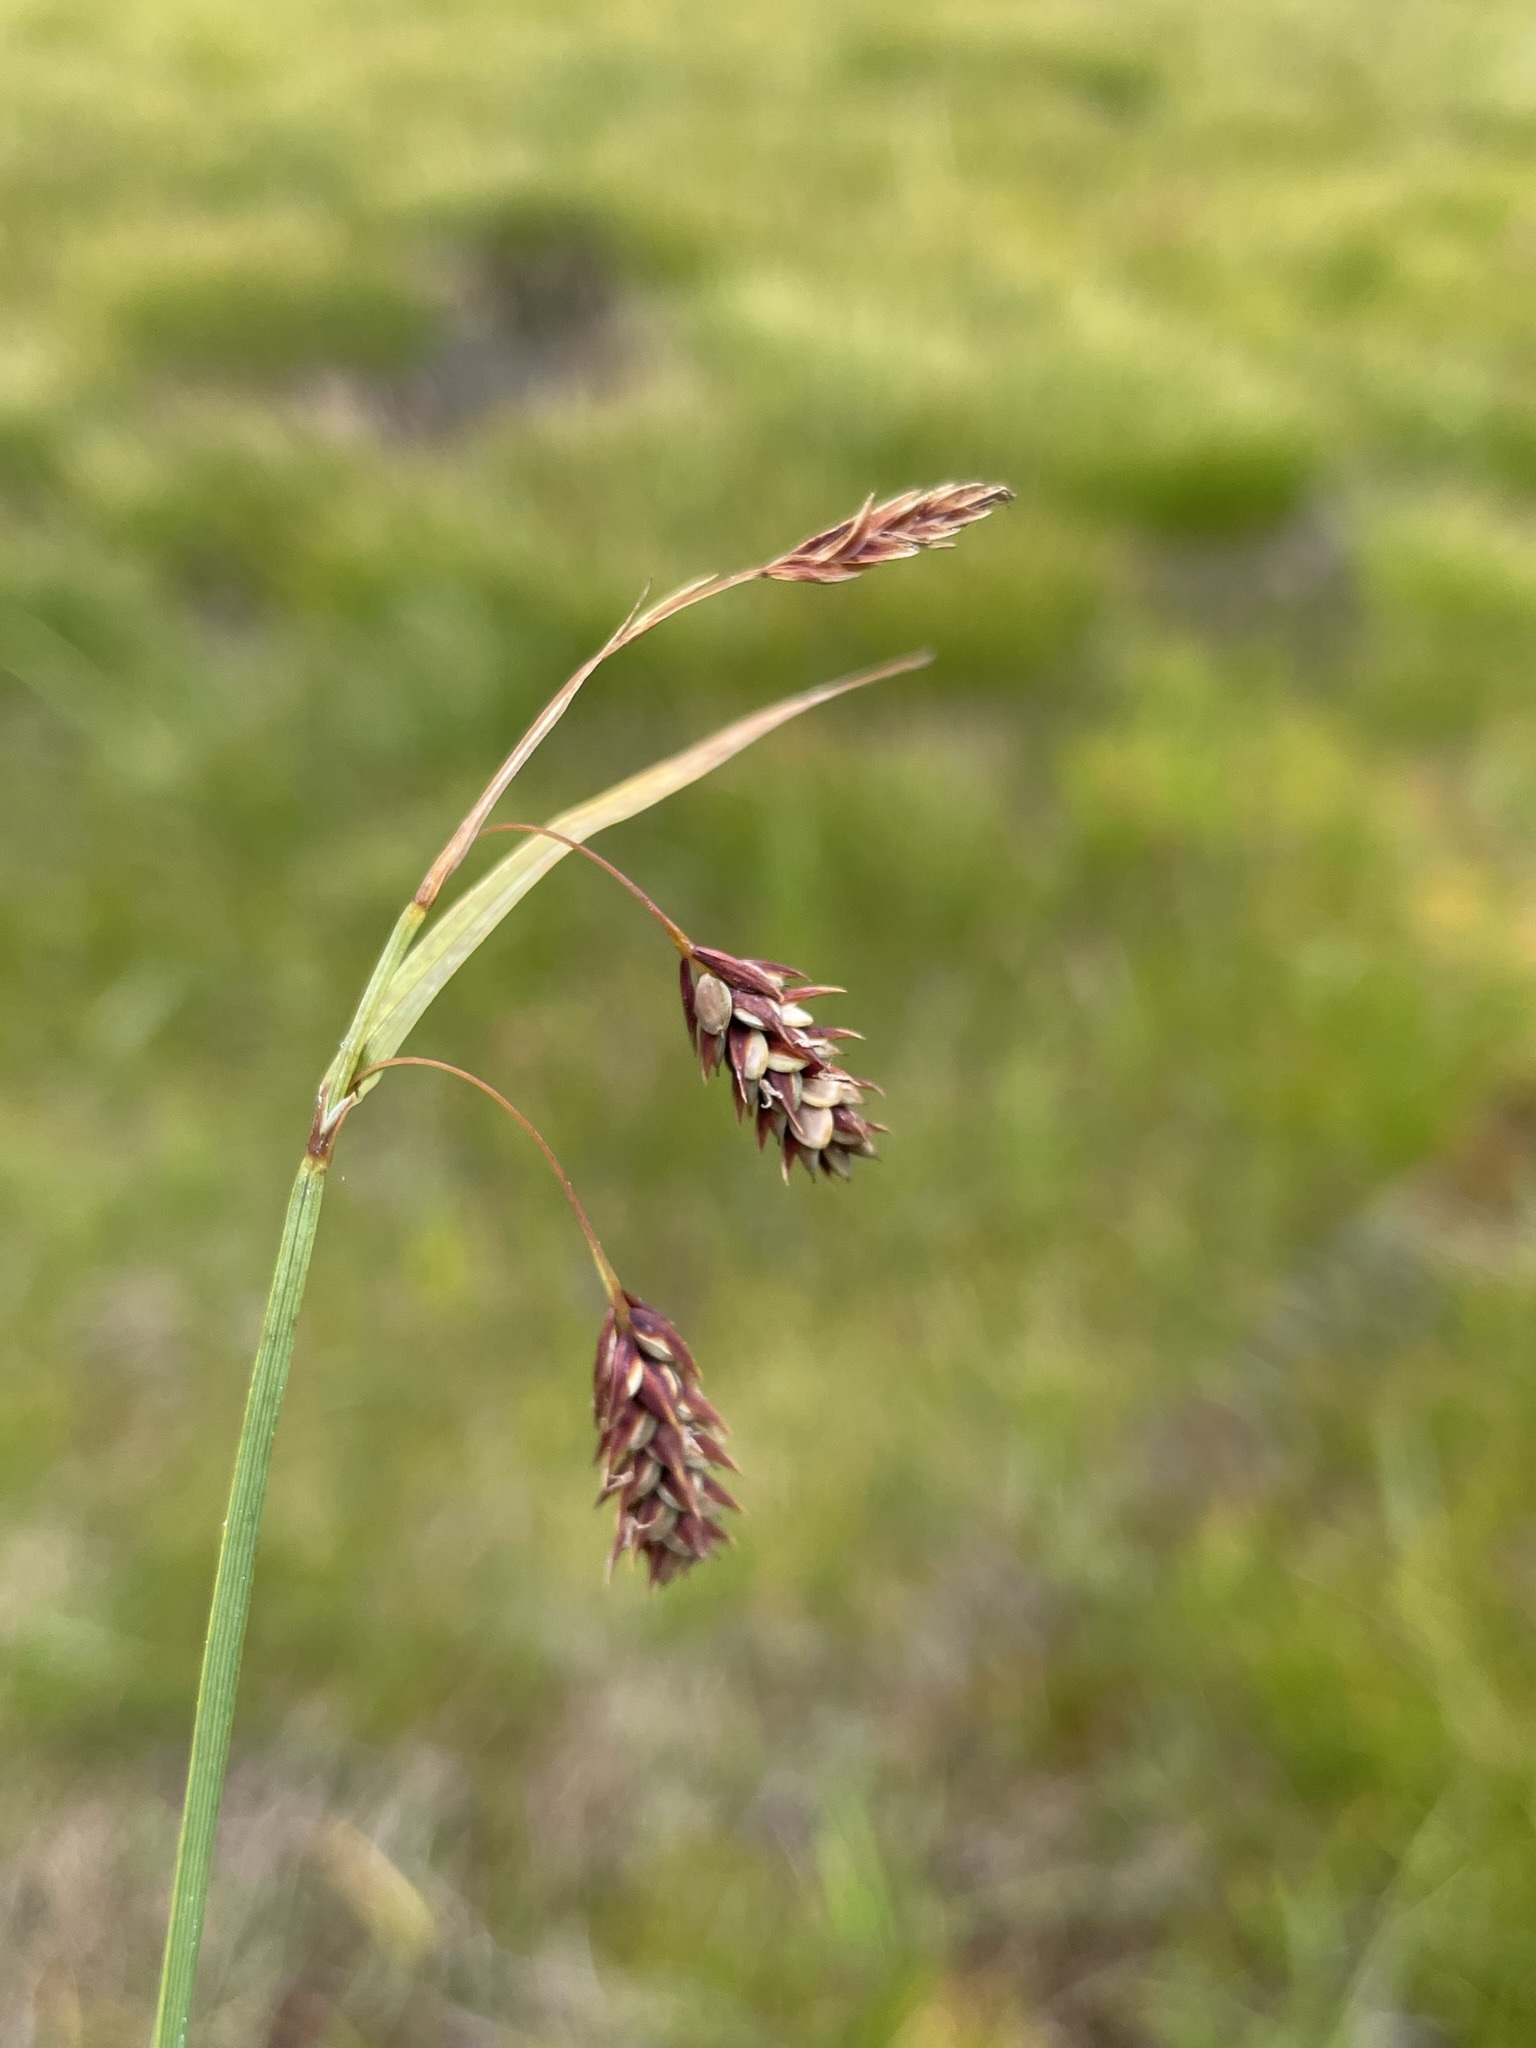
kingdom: Plantae
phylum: Tracheophyta
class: Liliopsida
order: Poales
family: Cyperaceae
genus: Carex
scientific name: Carex magellanica
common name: Bog sedge
